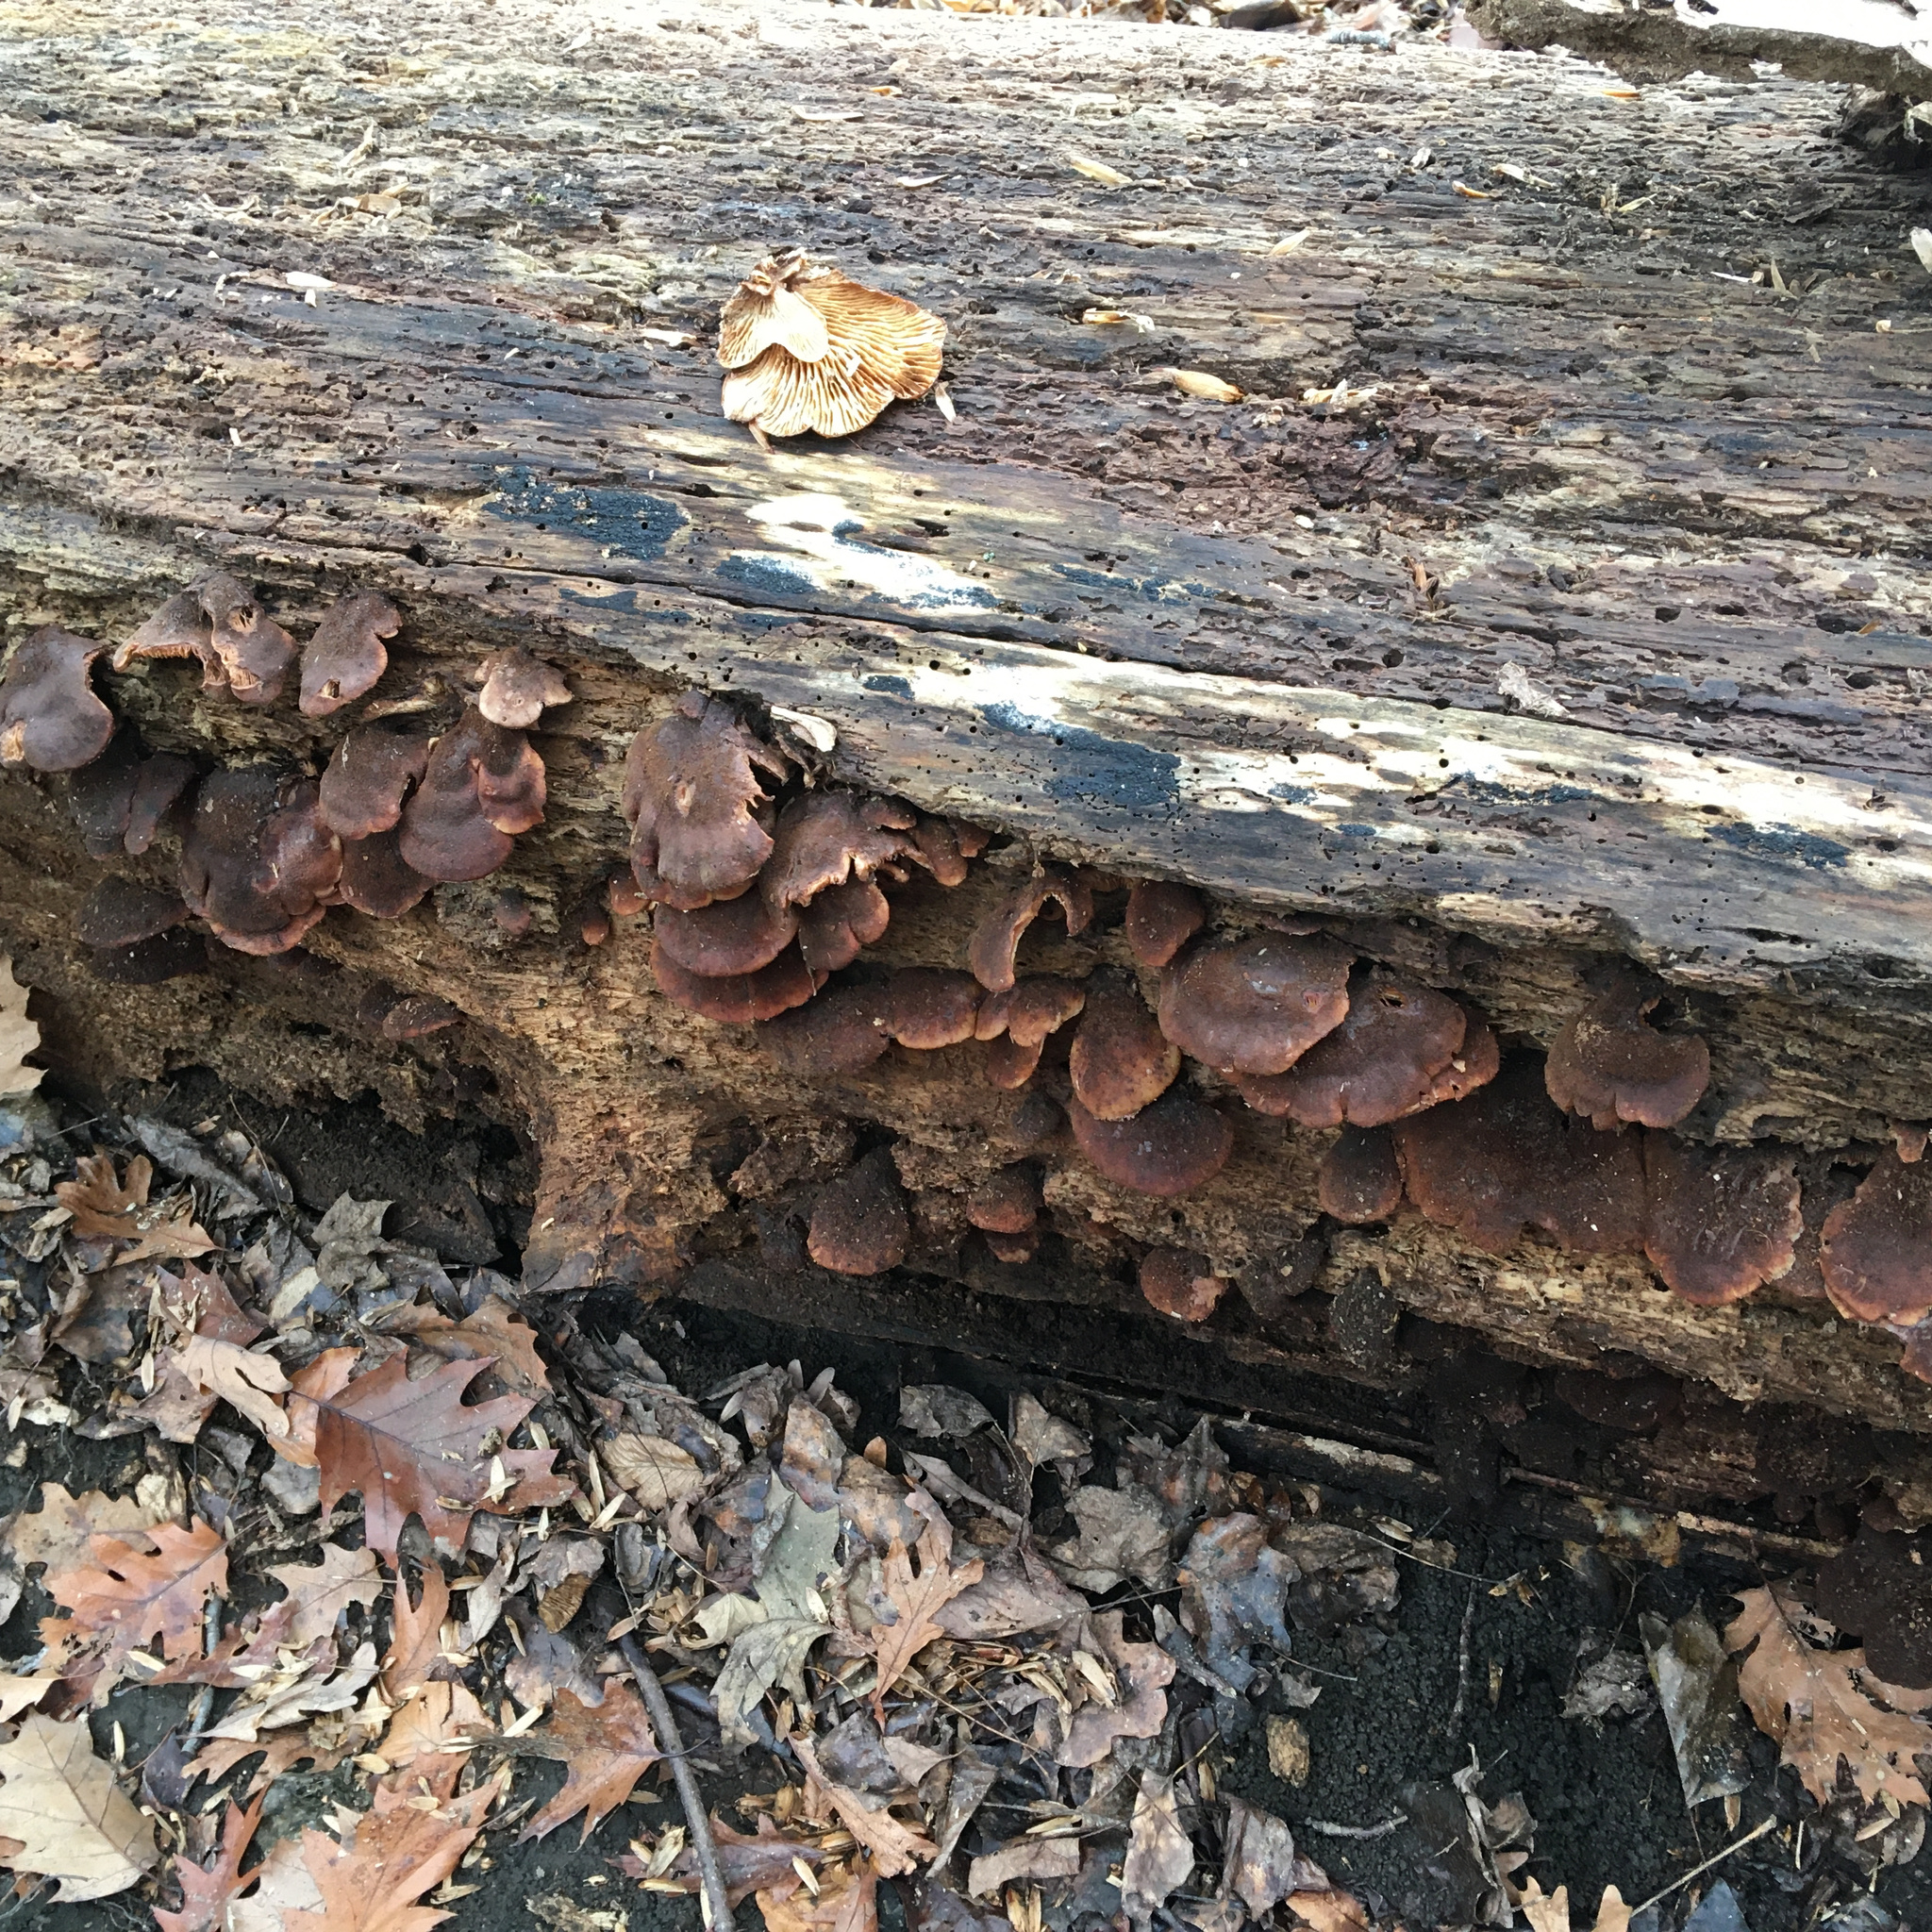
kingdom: Fungi
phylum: Basidiomycota
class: Agaricomycetes
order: Russulales
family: Auriscalpiaceae
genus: Lentinellus
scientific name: Lentinellus ursinus
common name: Bear lentinus
